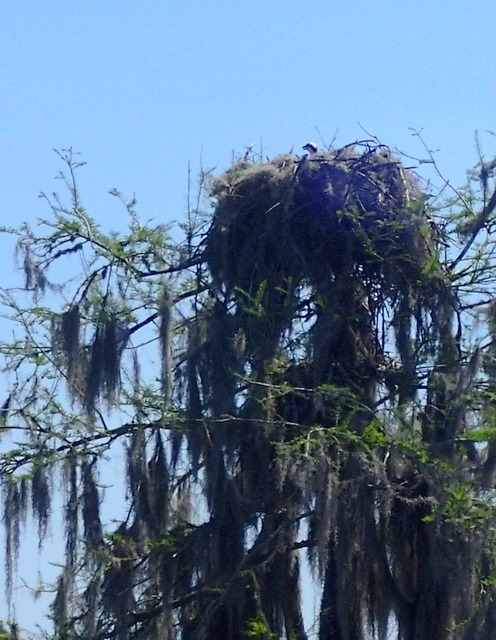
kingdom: Animalia
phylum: Chordata
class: Aves
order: Accipitriformes
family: Pandionidae
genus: Pandion
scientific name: Pandion haliaetus
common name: Osprey
